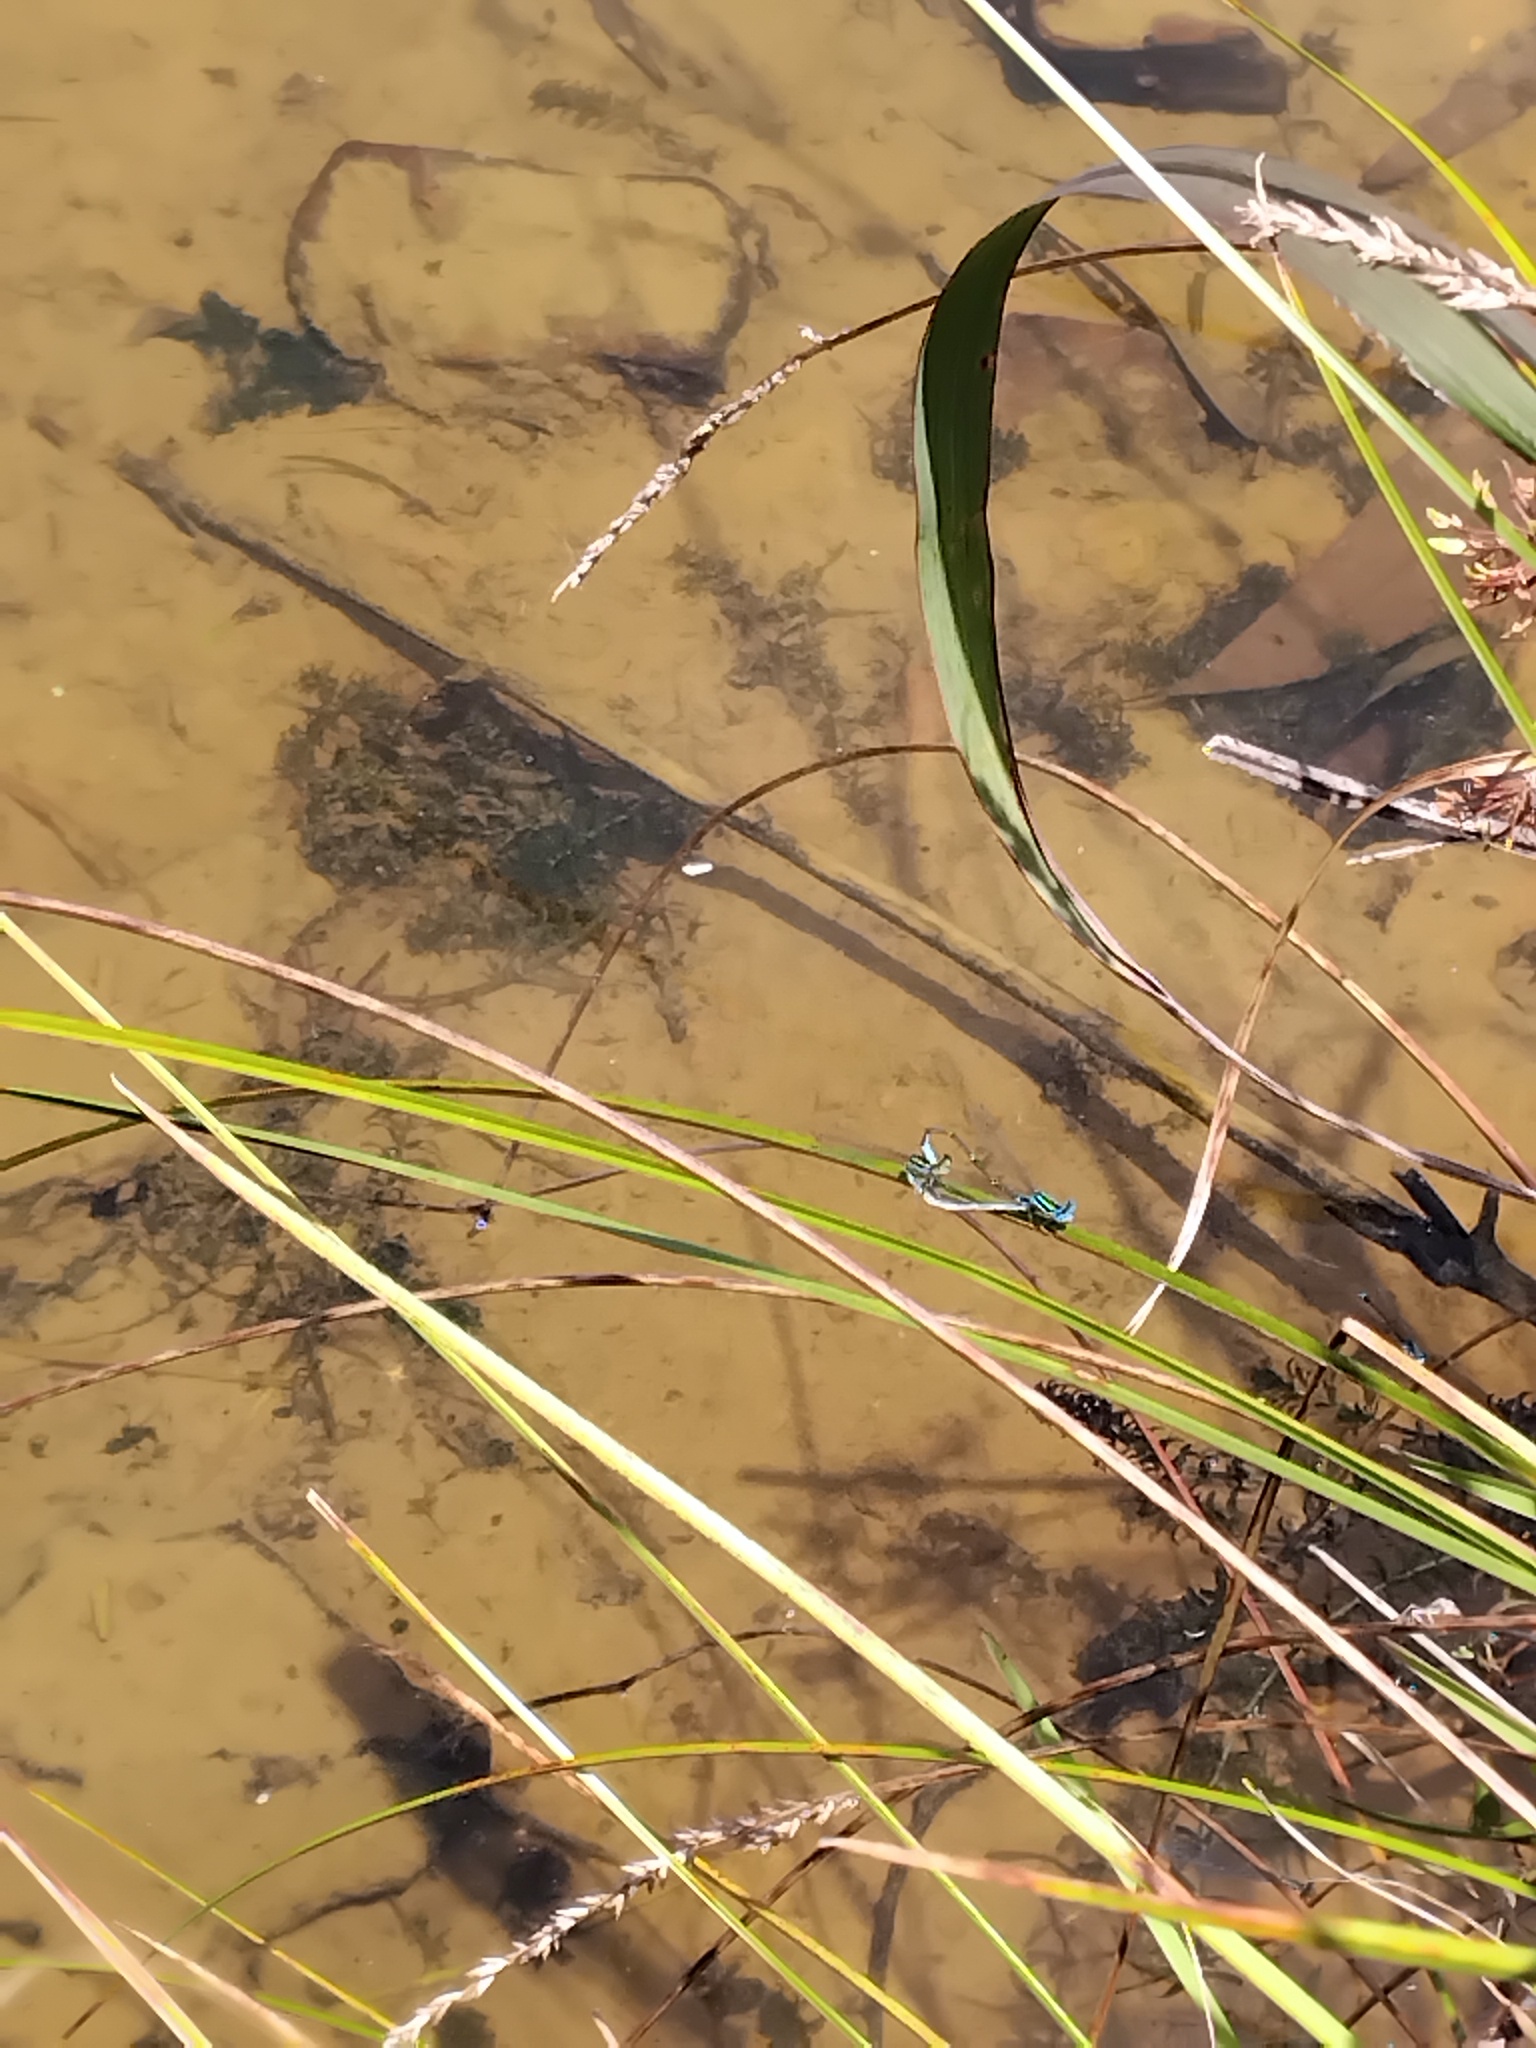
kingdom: Animalia
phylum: Arthropoda
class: Insecta
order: Odonata
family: Coenagrionidae
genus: Austroagrion
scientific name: Austroagrion watsoni
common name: Eastern billabongfly
